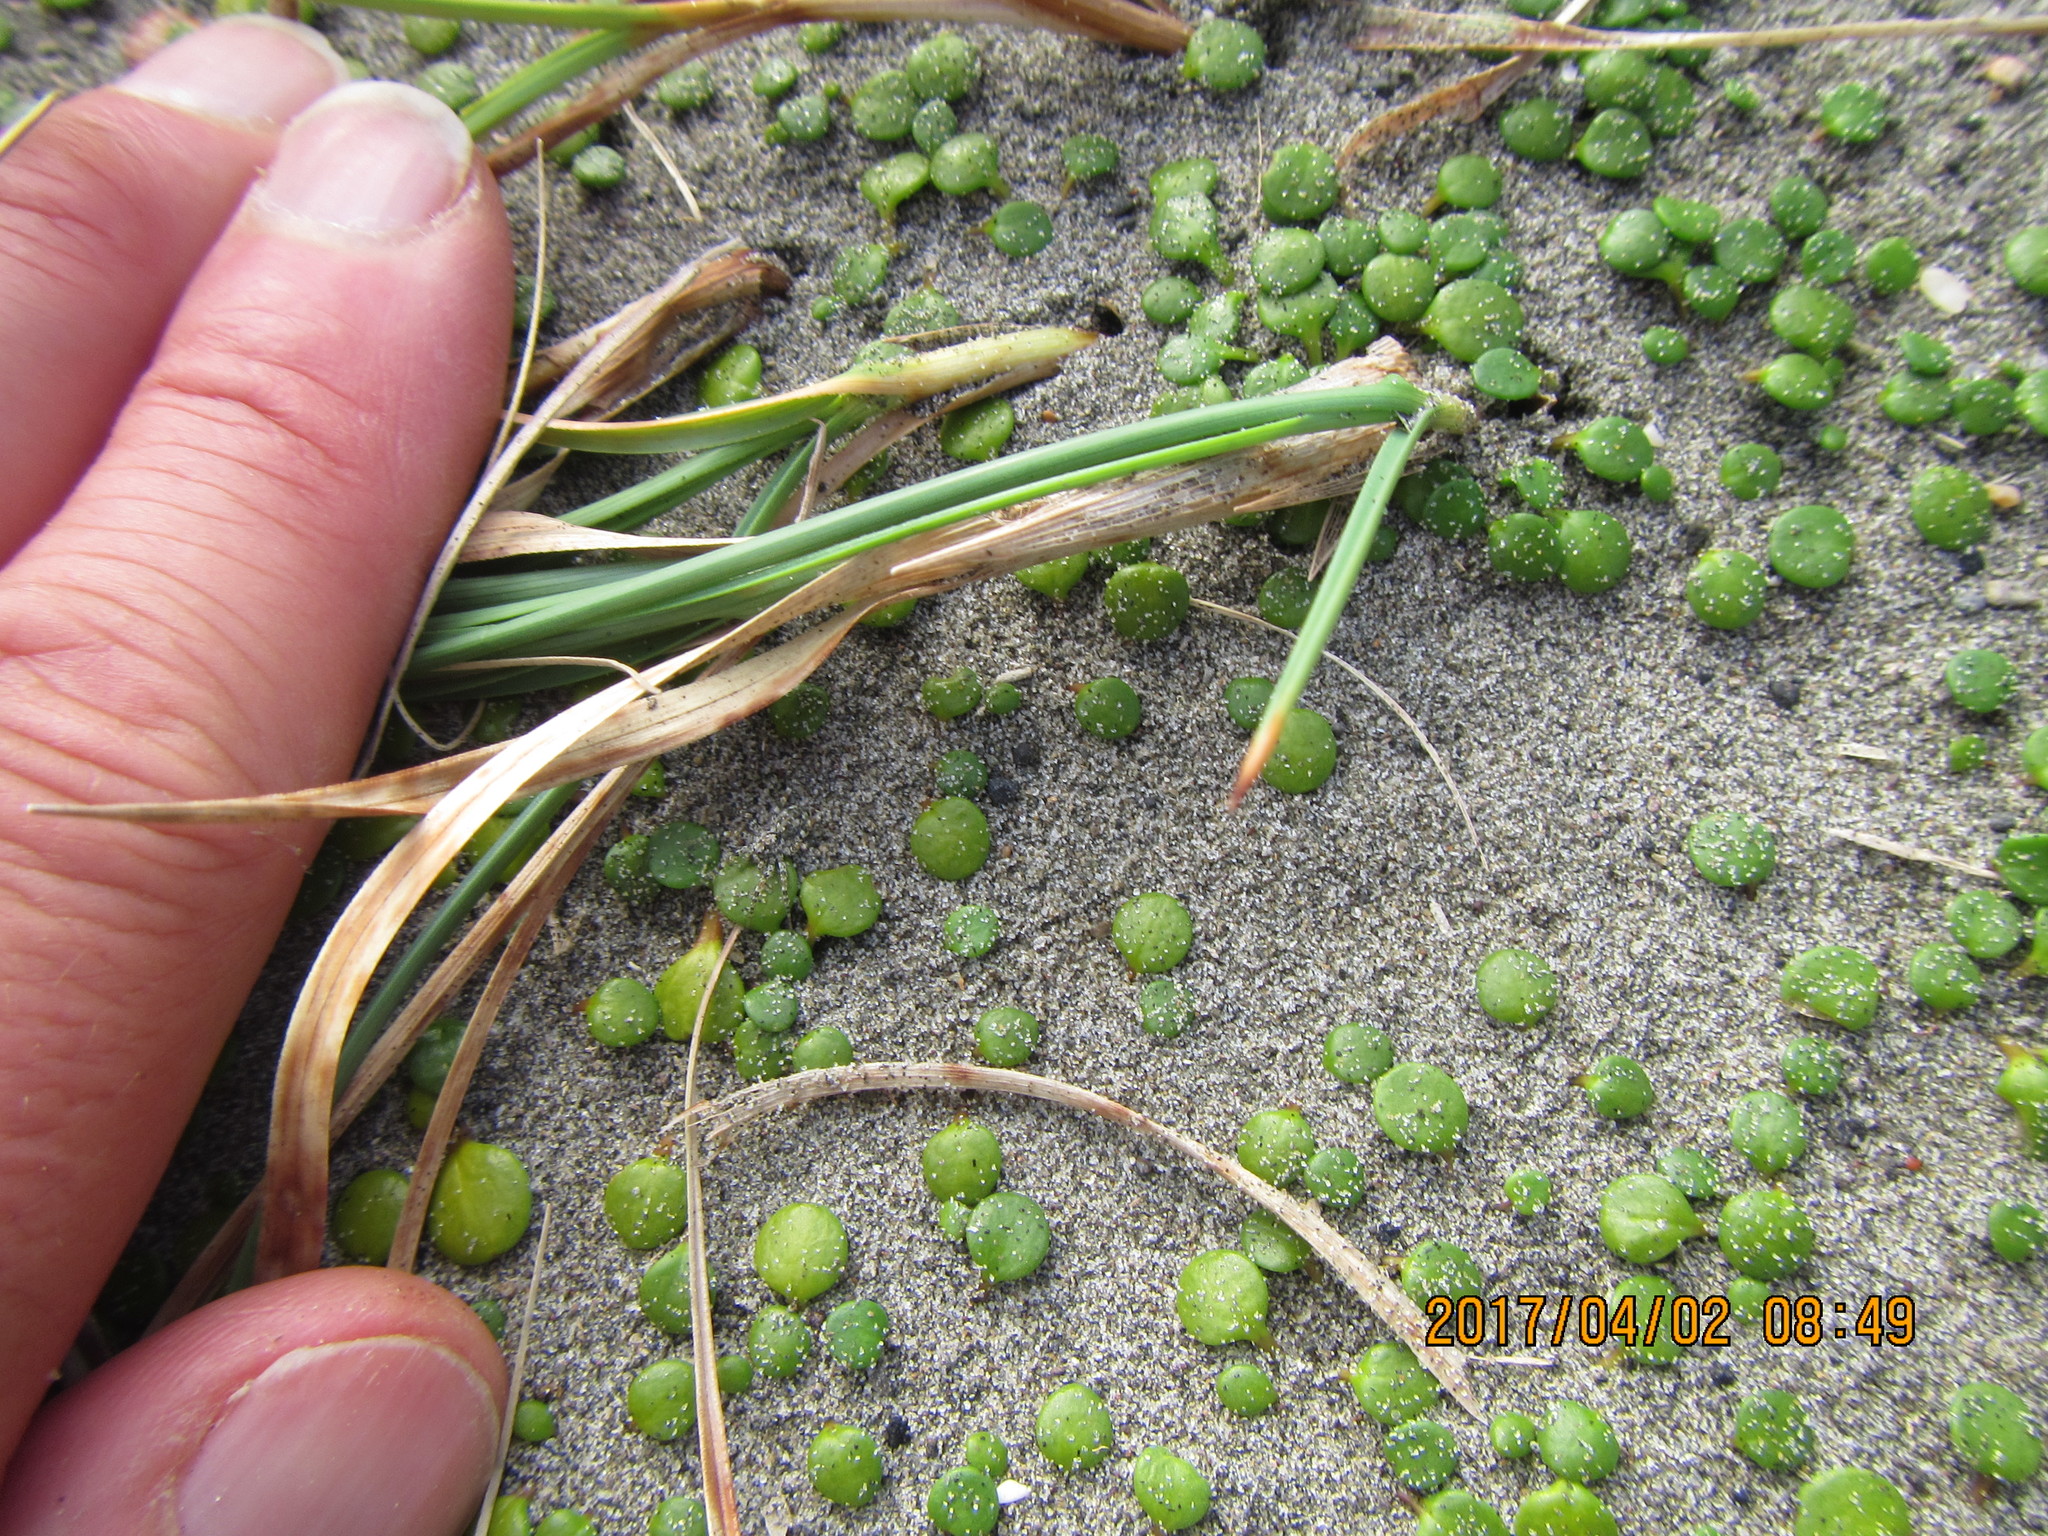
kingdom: Animalia
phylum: Arthropoda
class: Arachnida
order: Araneae
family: Lycosidae
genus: Anoteropsis
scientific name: Anoteropsis litoralis
